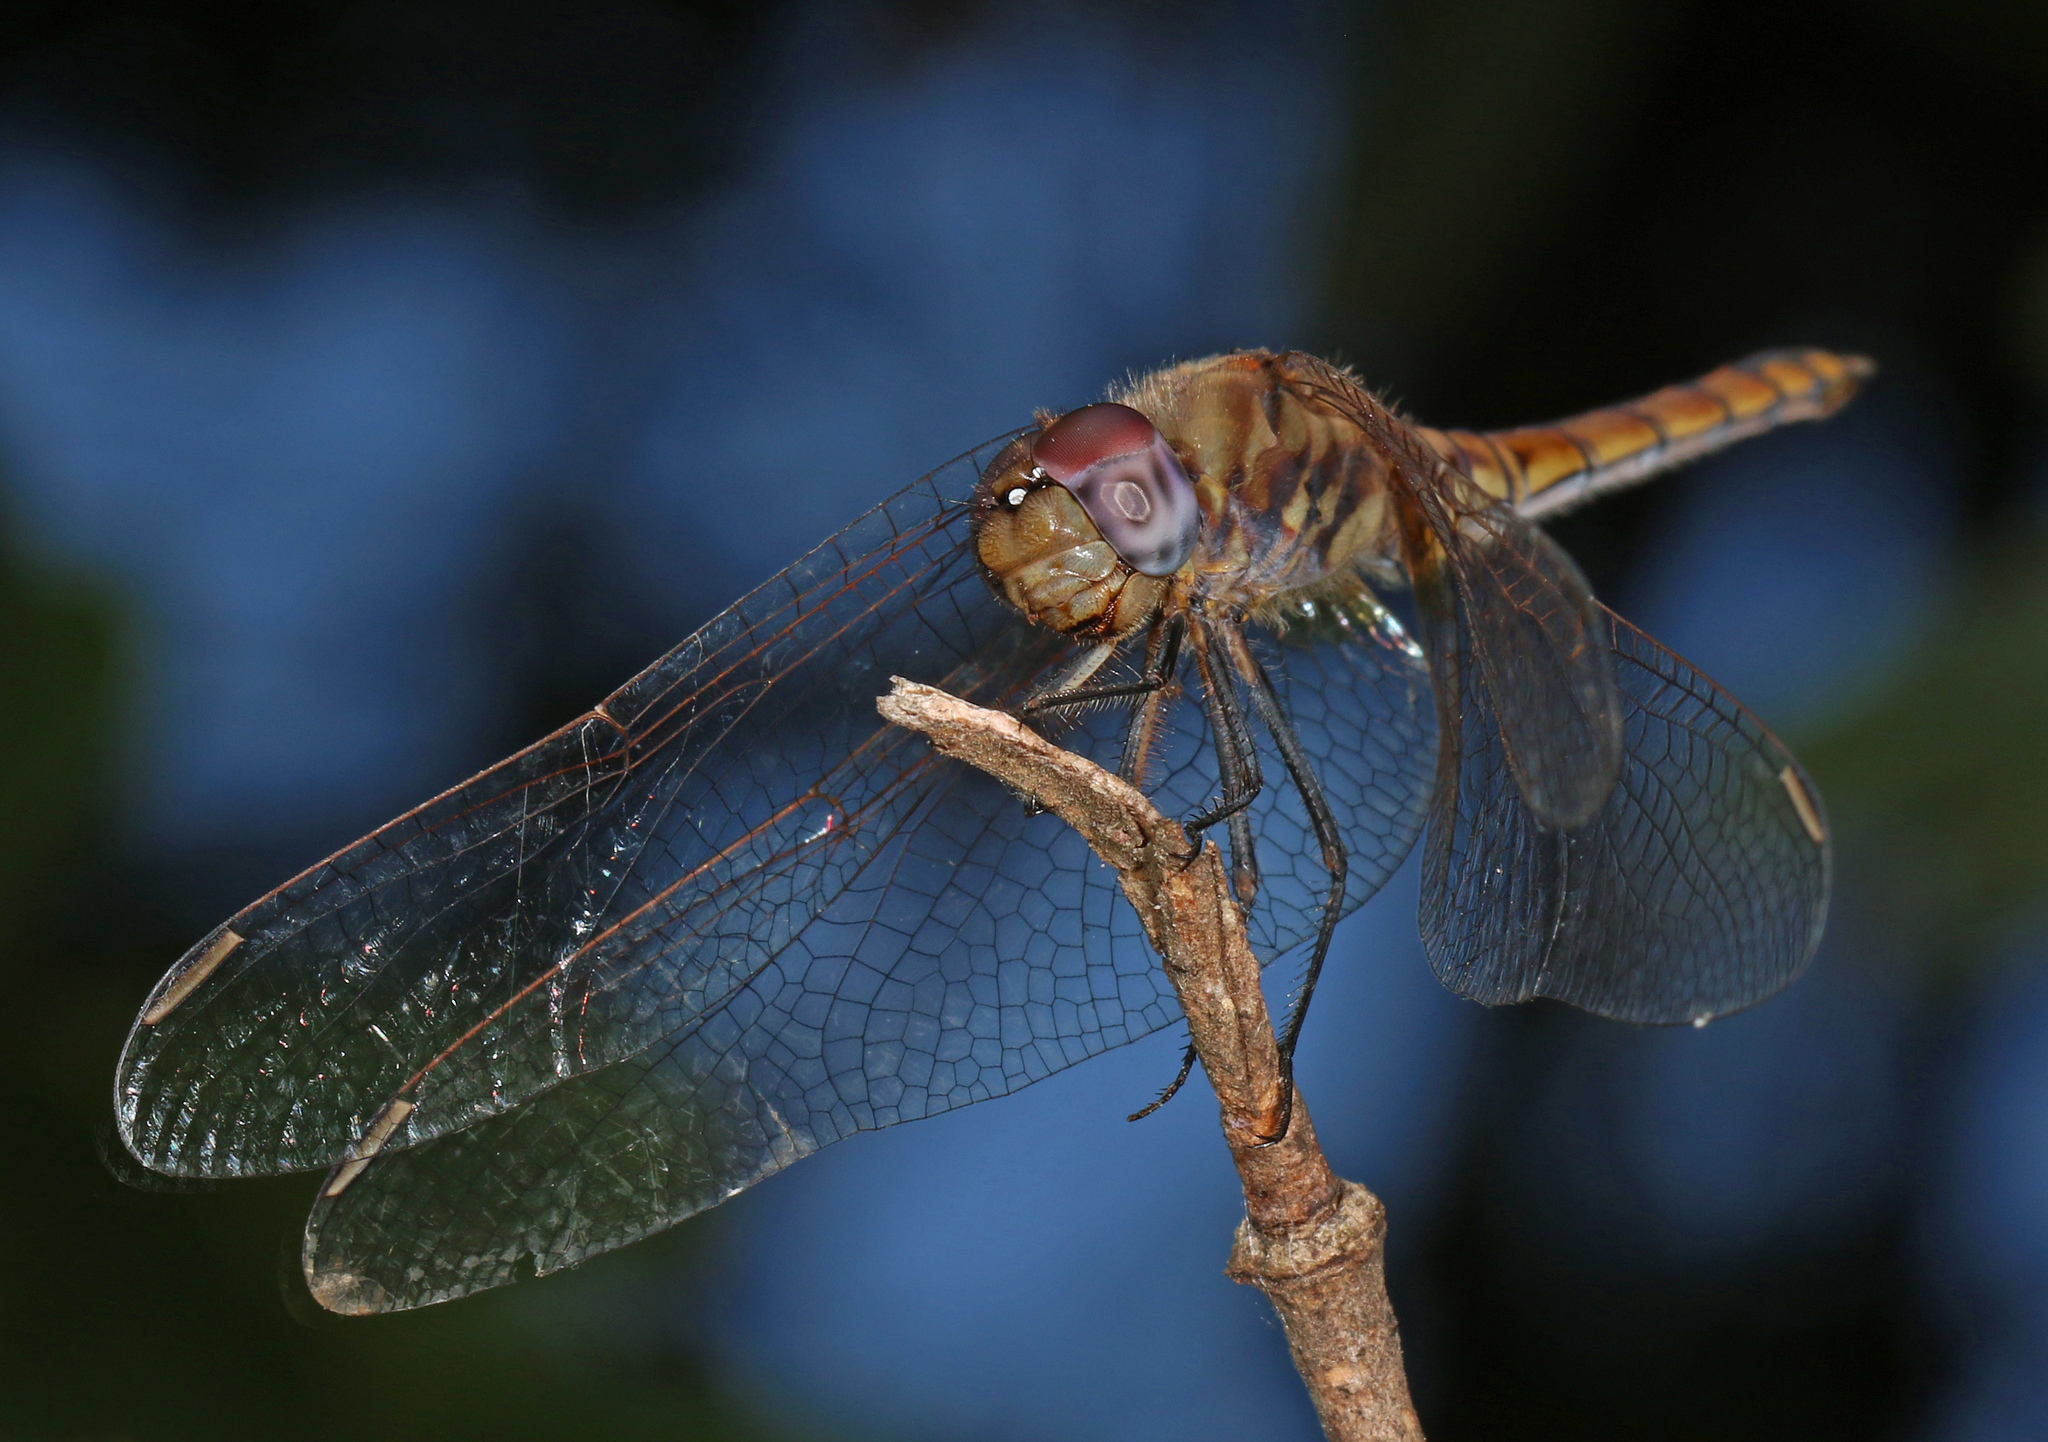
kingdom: Animalia
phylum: Arthropoda
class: Insecta
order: Odonata
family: Libellulidae
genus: Trithemis
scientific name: Trithemis annulata
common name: Violet dropwing
